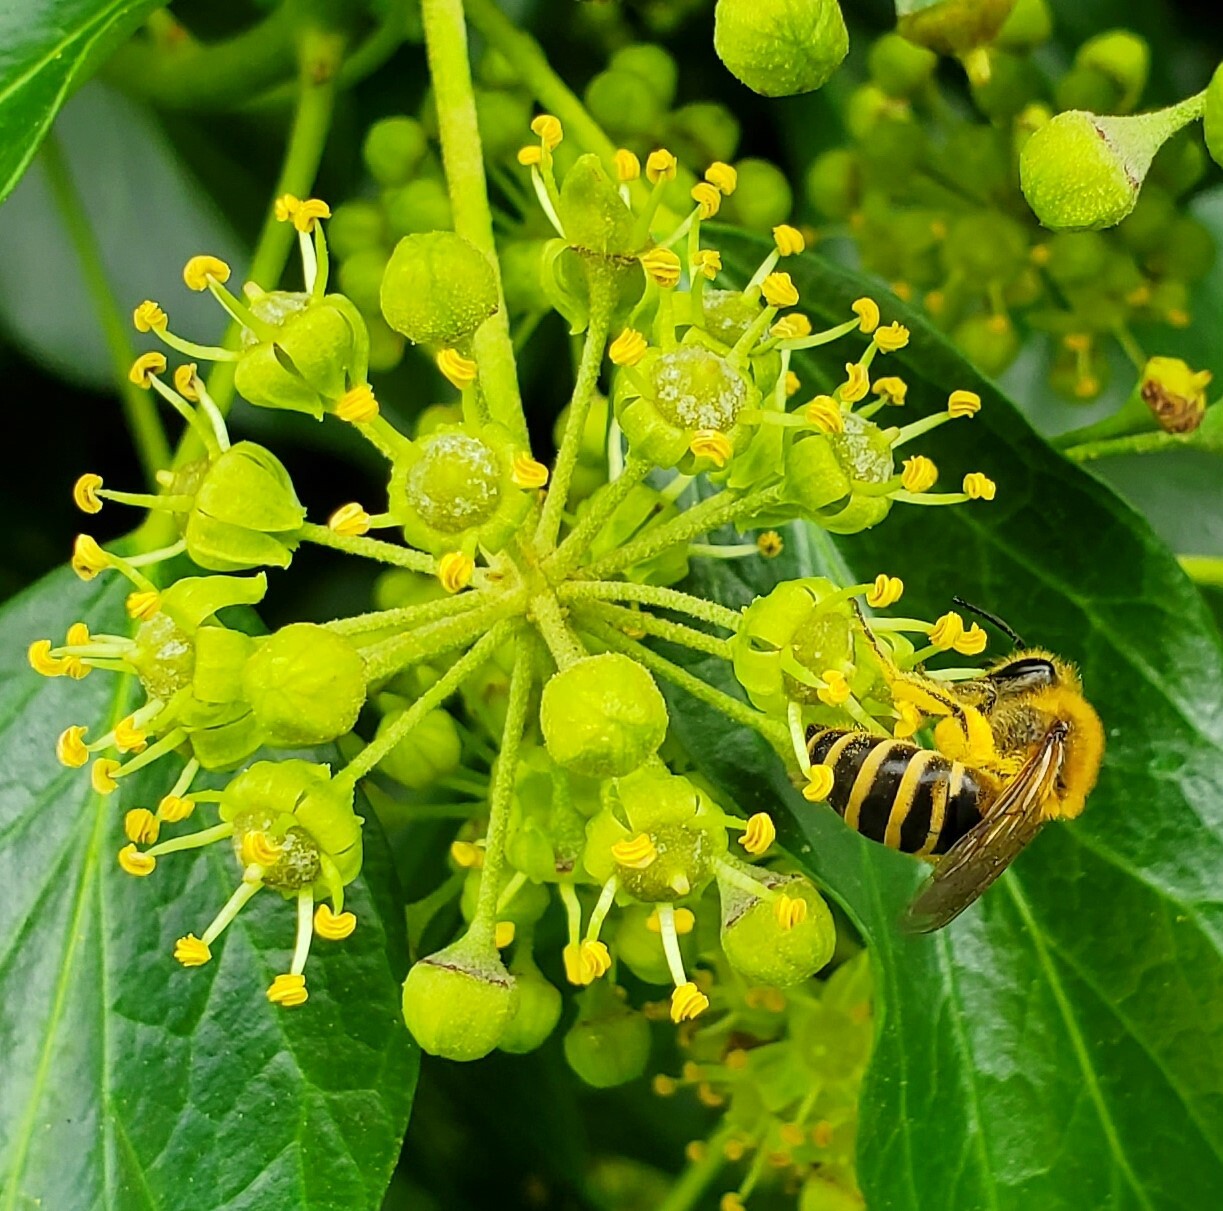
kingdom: Animalia
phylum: Arthropoda
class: Insecta
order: Hymenoptera
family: Colletidae
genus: Colletes
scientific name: Colletes hederae
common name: Ivy bee
